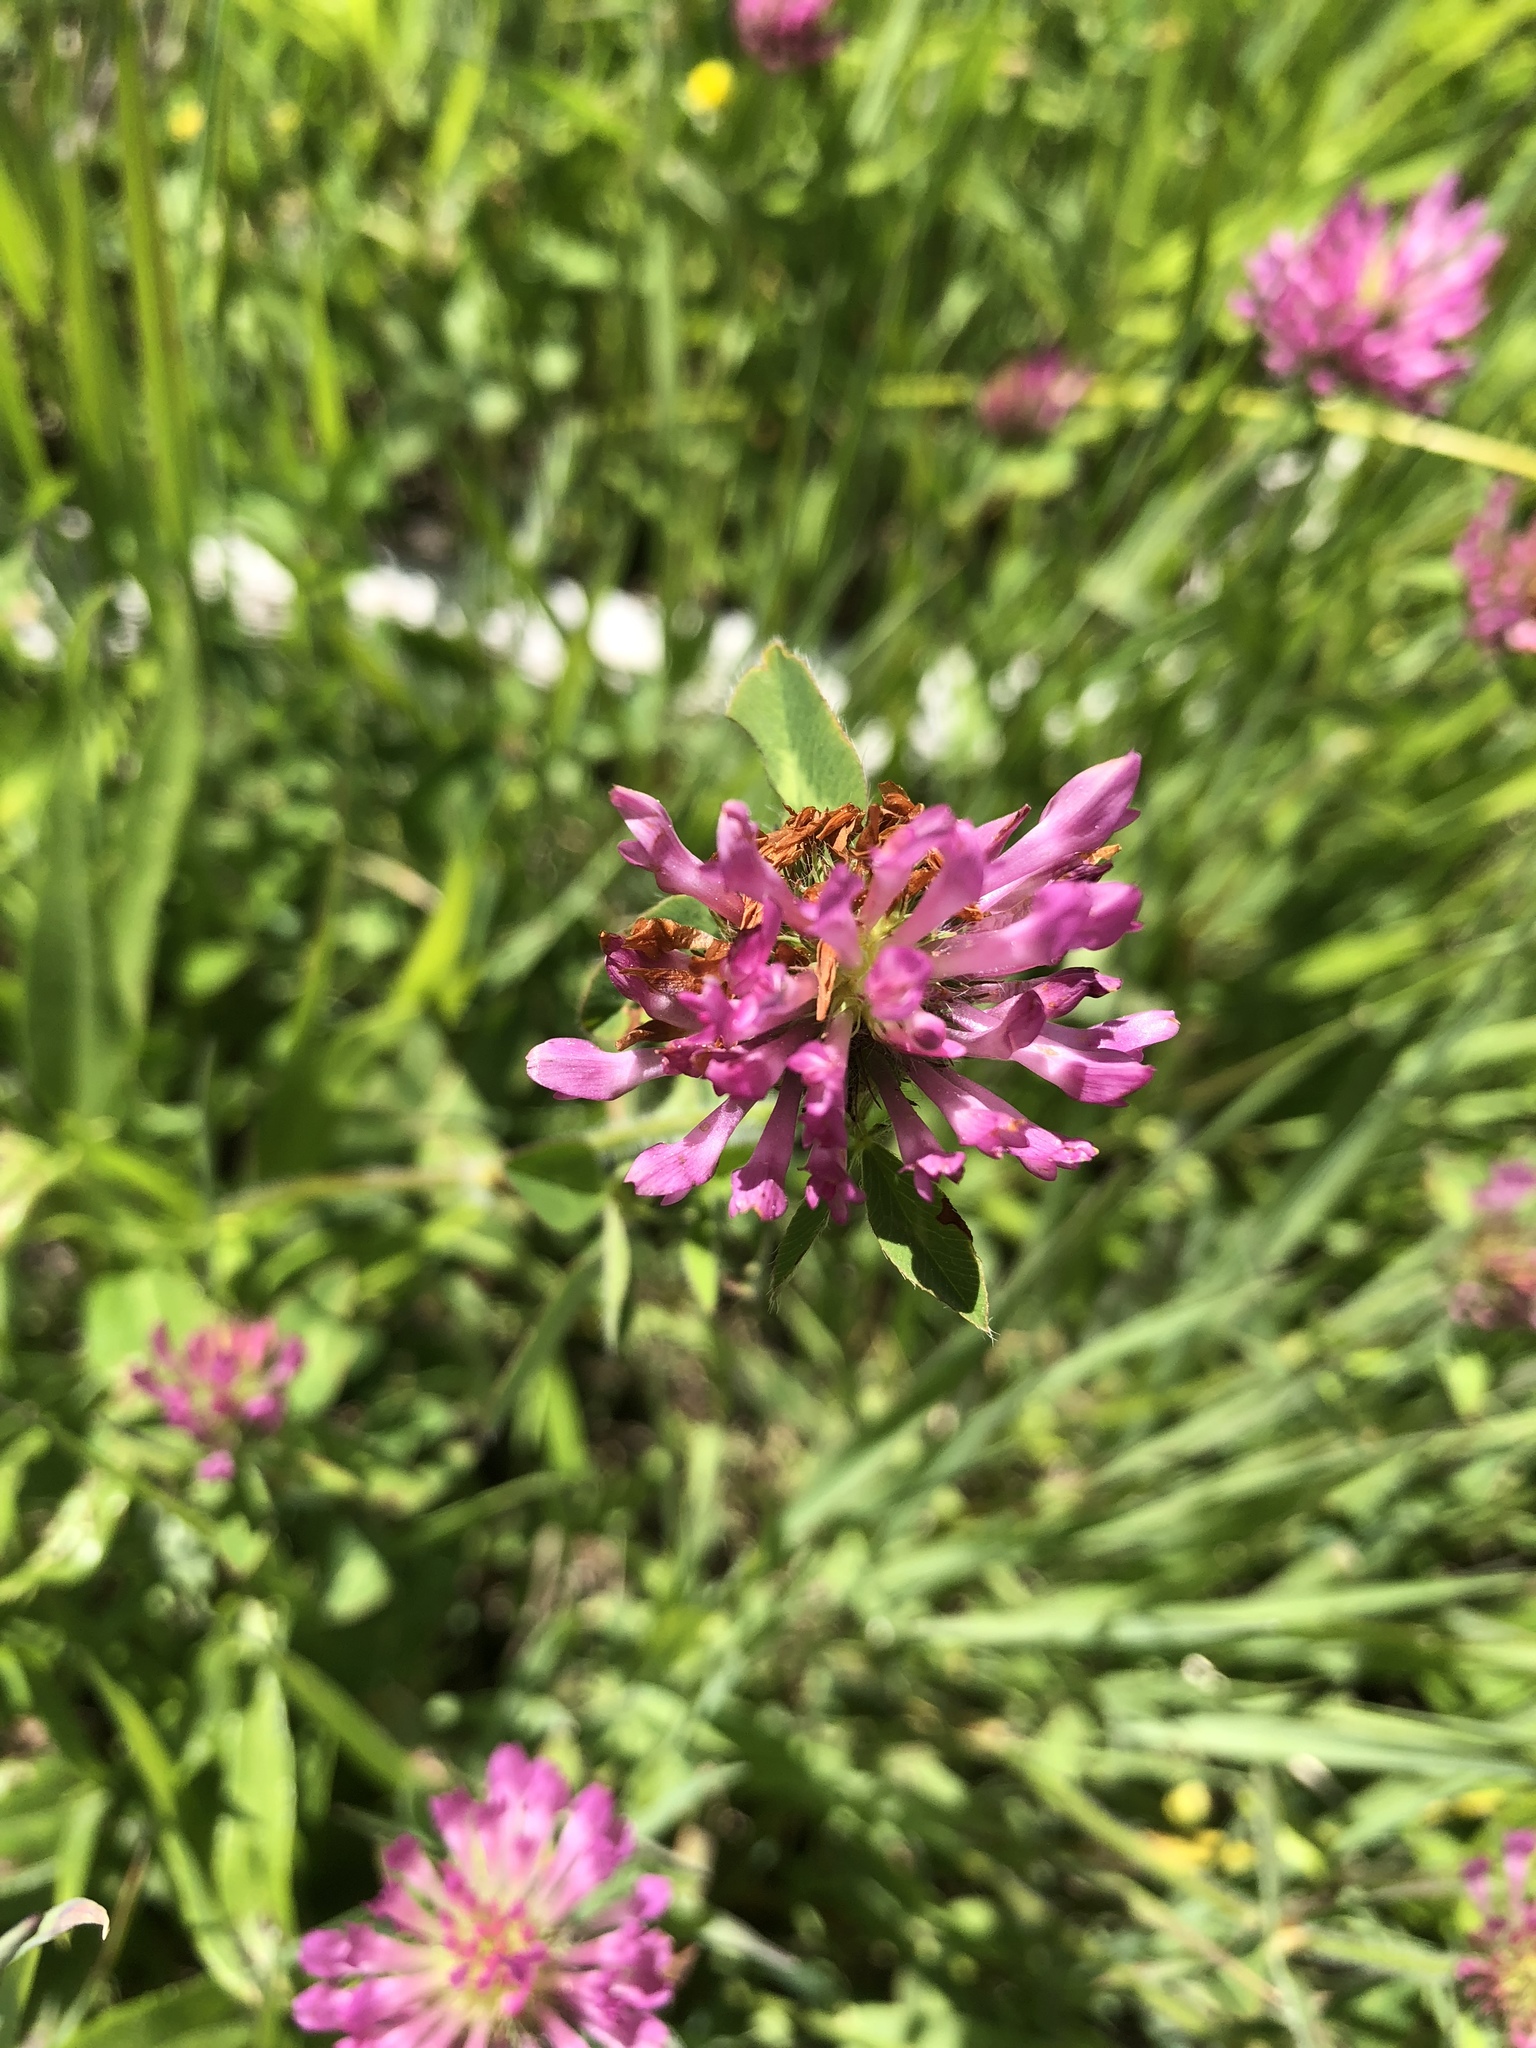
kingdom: Plantae
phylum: Tracheophyta
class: Magnoliopsida
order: Fabales
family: Fabaceae
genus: Trifolium
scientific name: Trifolium pratense
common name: Red clover
